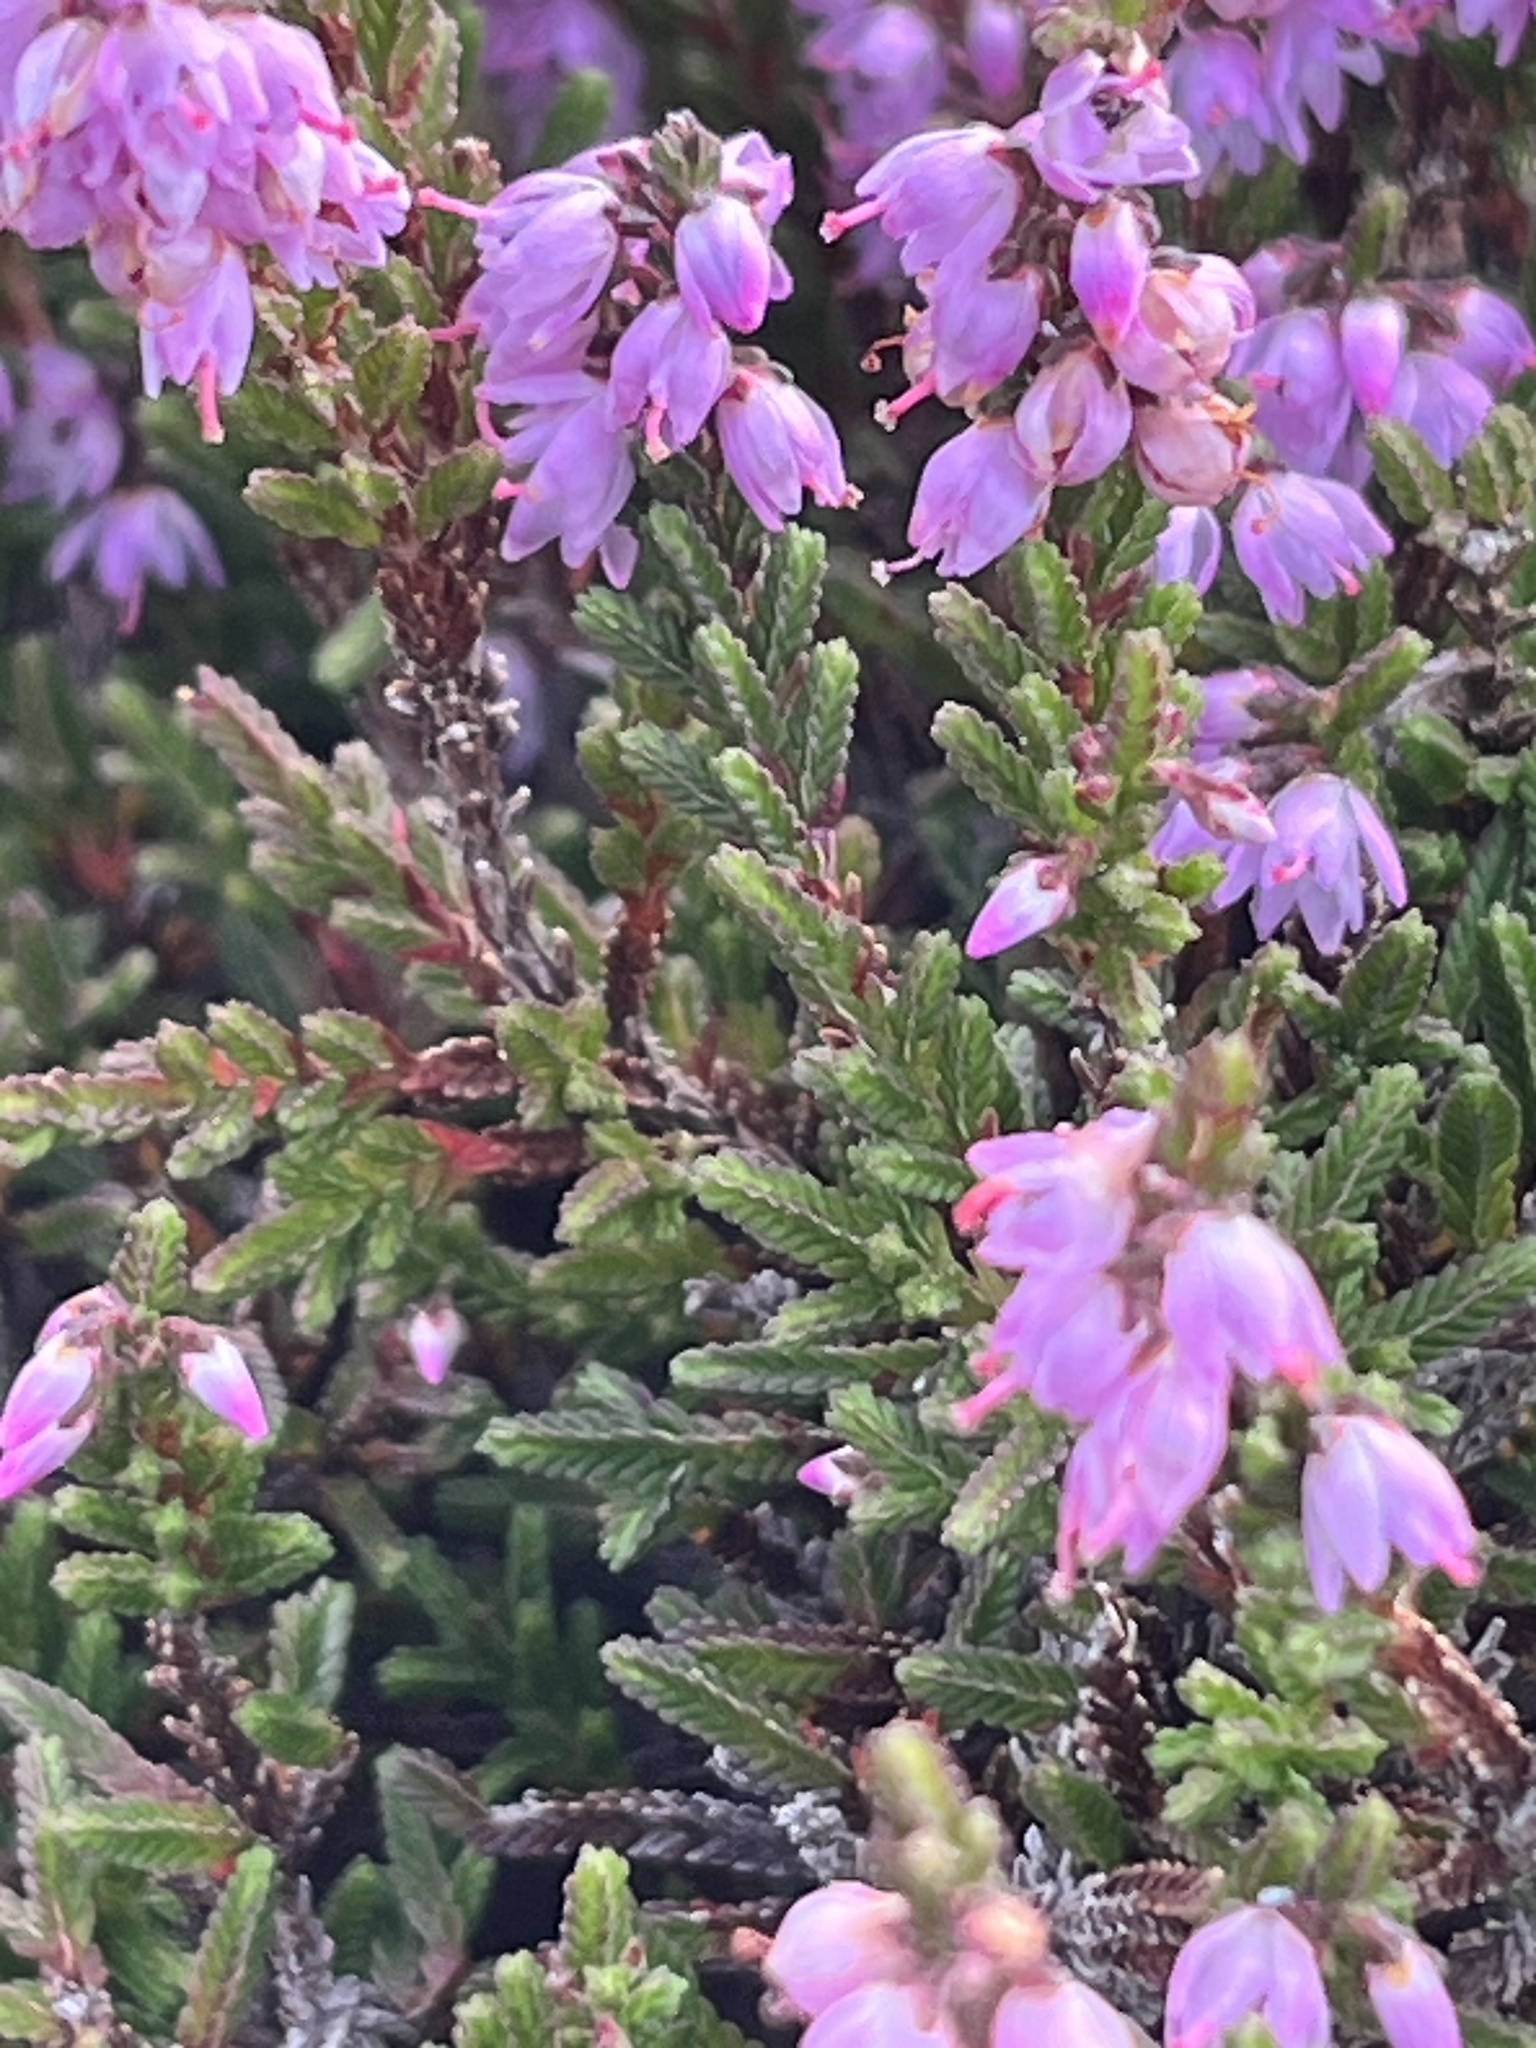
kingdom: Plantae
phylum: Tracheophyta
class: Magnoliopsida
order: Ericales
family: Ericaceae
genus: Calluna
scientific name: Calluna vulgaris
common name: Heather
